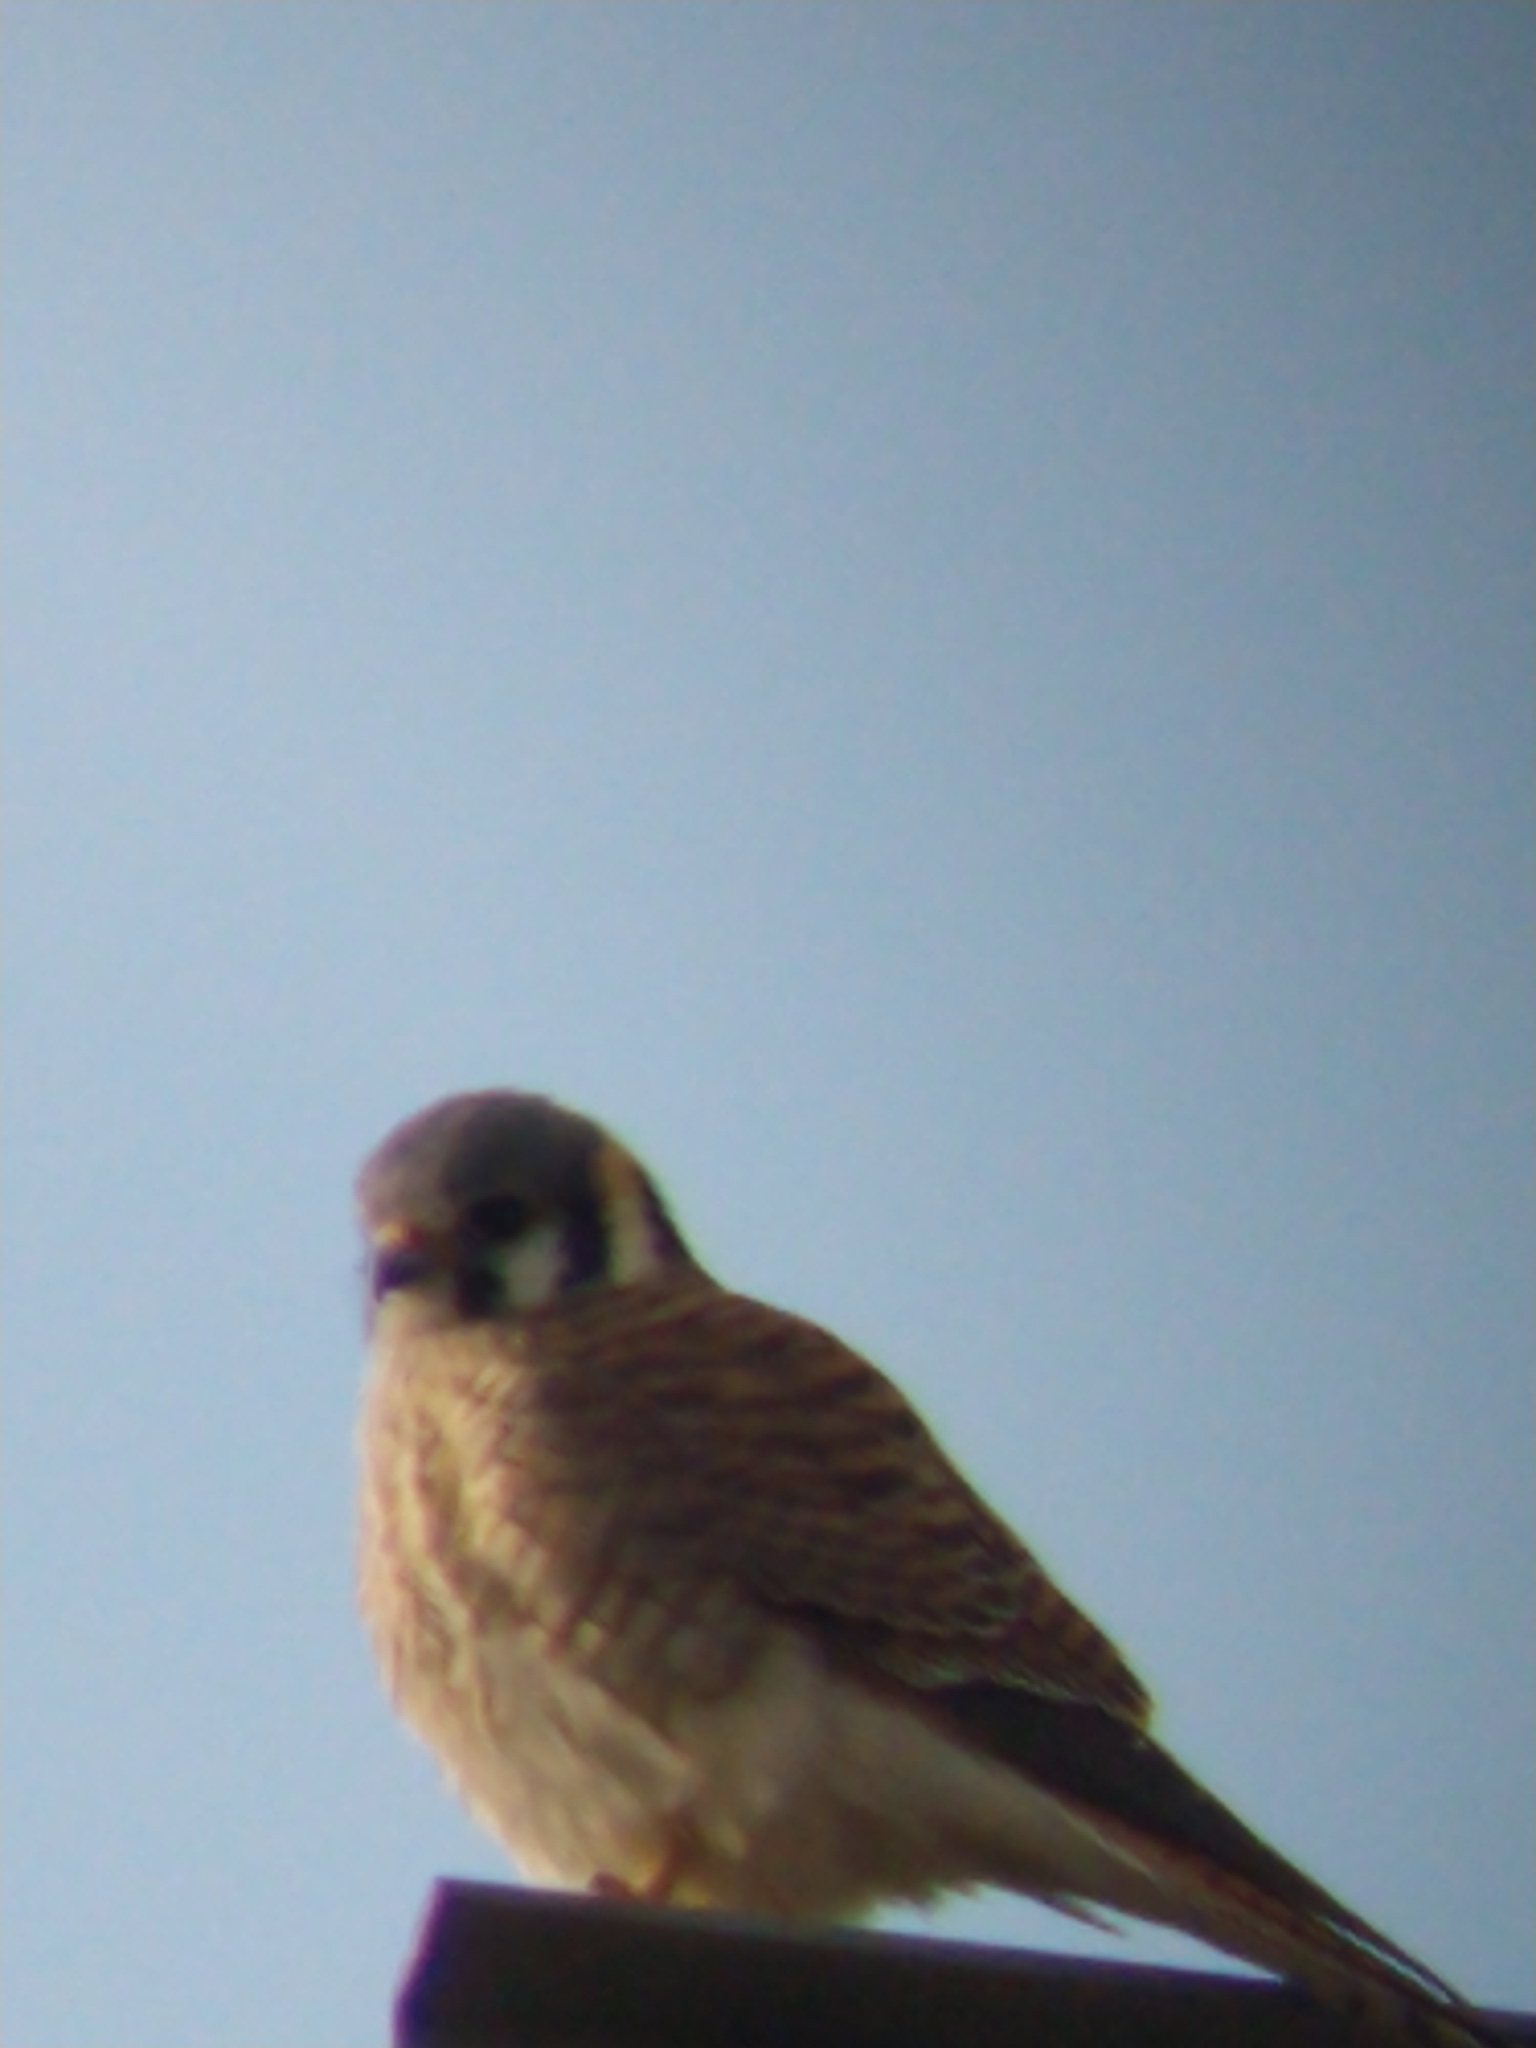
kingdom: Animalia
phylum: Chordata
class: Aves
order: Falconiformes
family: Falconidae
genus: Falco
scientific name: Falco sparverius
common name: American kestrel
